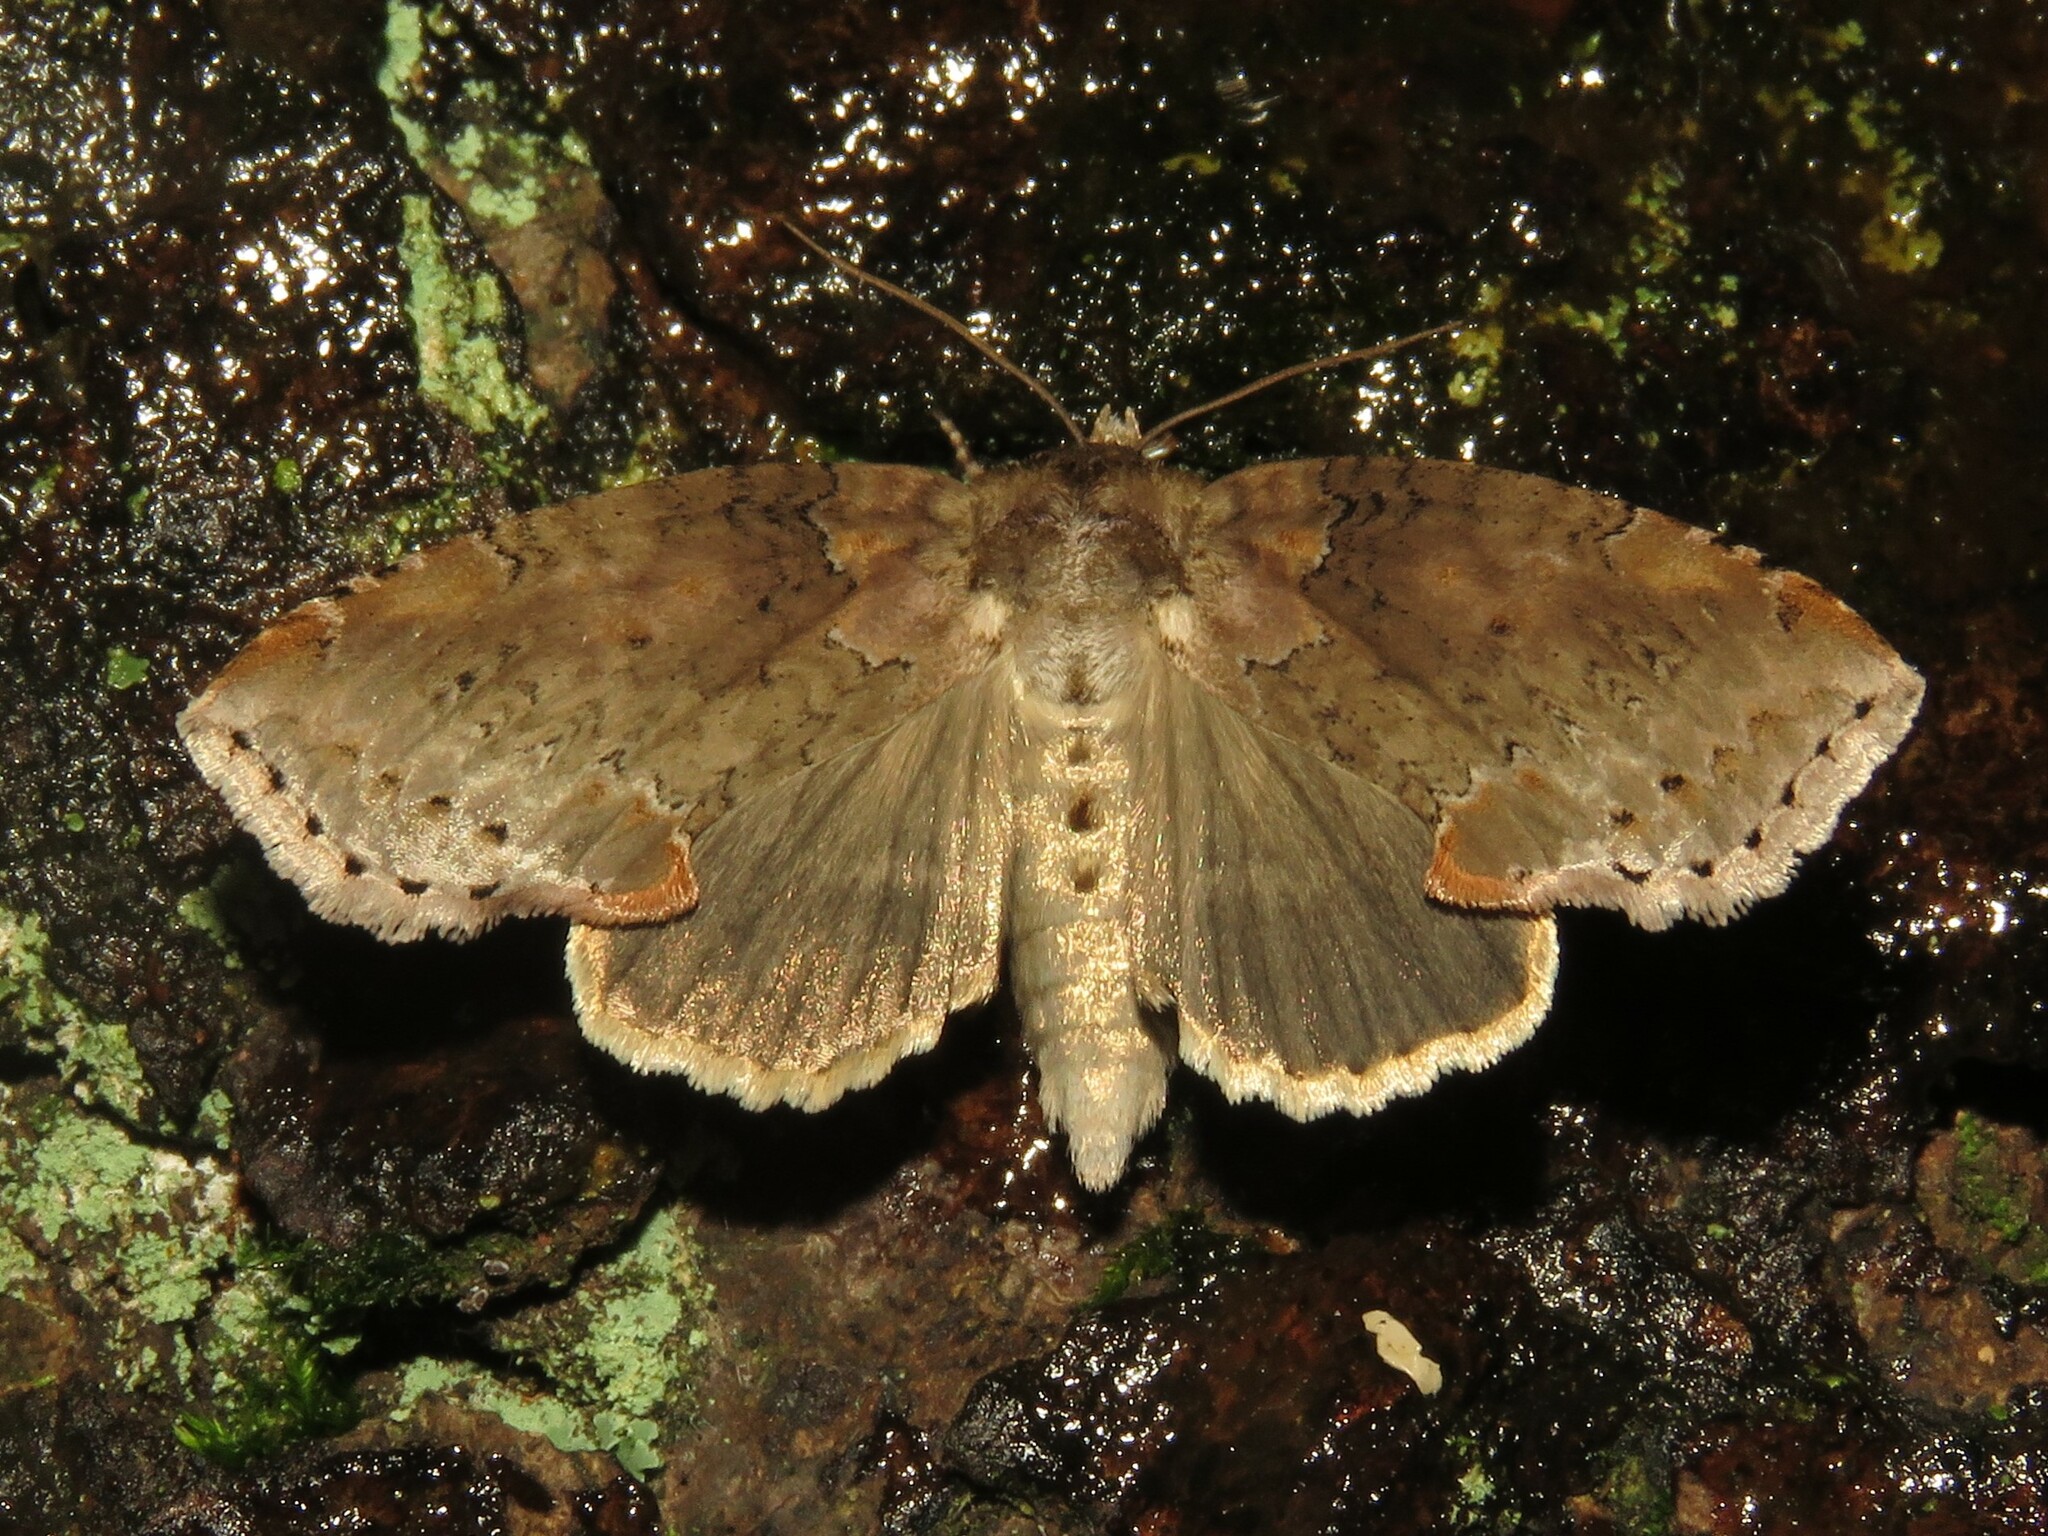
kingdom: Animalia
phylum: Arthropoda
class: Insecta
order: Lepidoptera
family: Drepanidae
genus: Pseudothyatira
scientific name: Pseudothyatira cymatophoroides
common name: Tufted thyatirid moth
